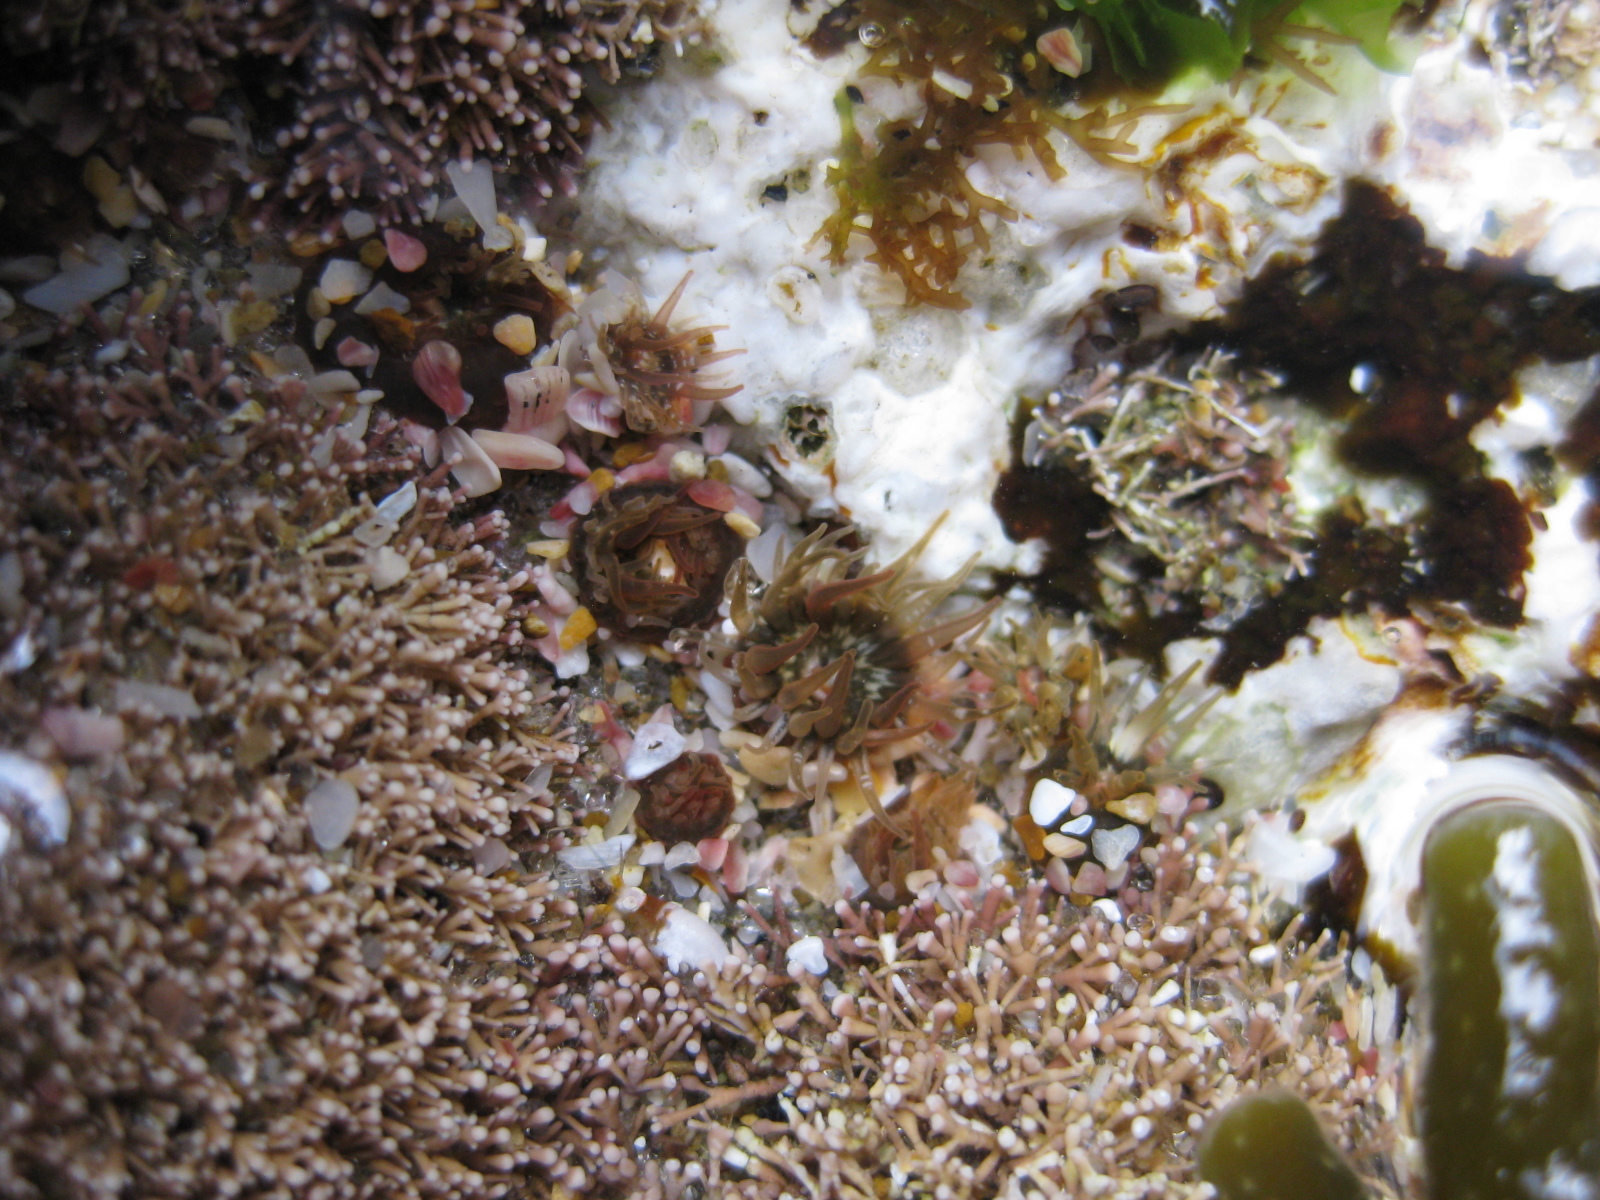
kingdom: Animalia
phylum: Cnidaria
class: Anthozoa
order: Actiniaria
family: Actiniidae
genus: Anthopleura
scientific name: Anthopleura minima
